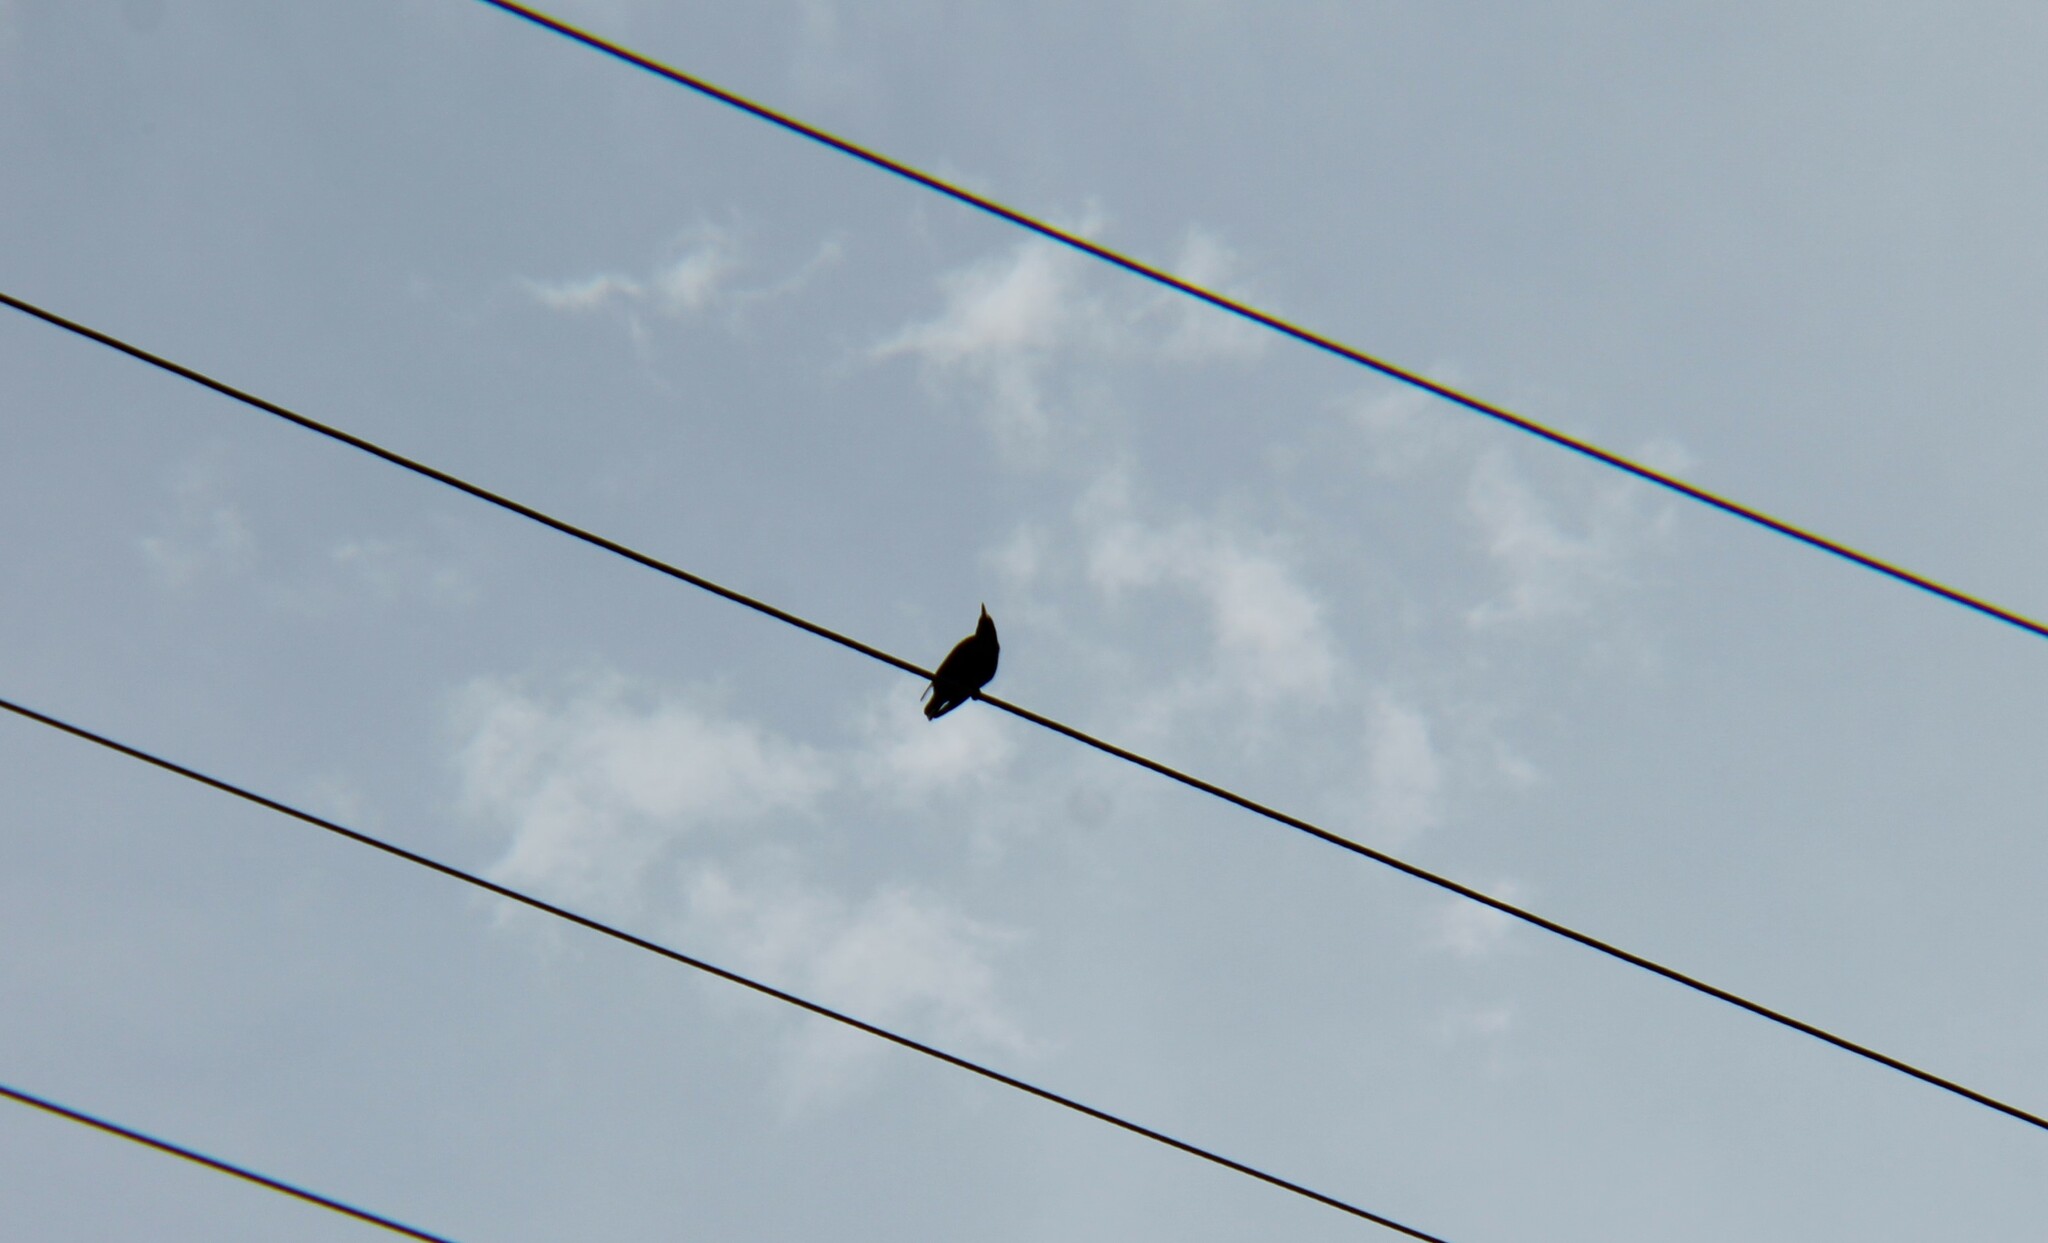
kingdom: Animalia
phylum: Chordata
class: Aves
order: Passeriformes
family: Sturnidae
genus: Sturnus
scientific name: Sturnus vulgaris
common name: Common starling
